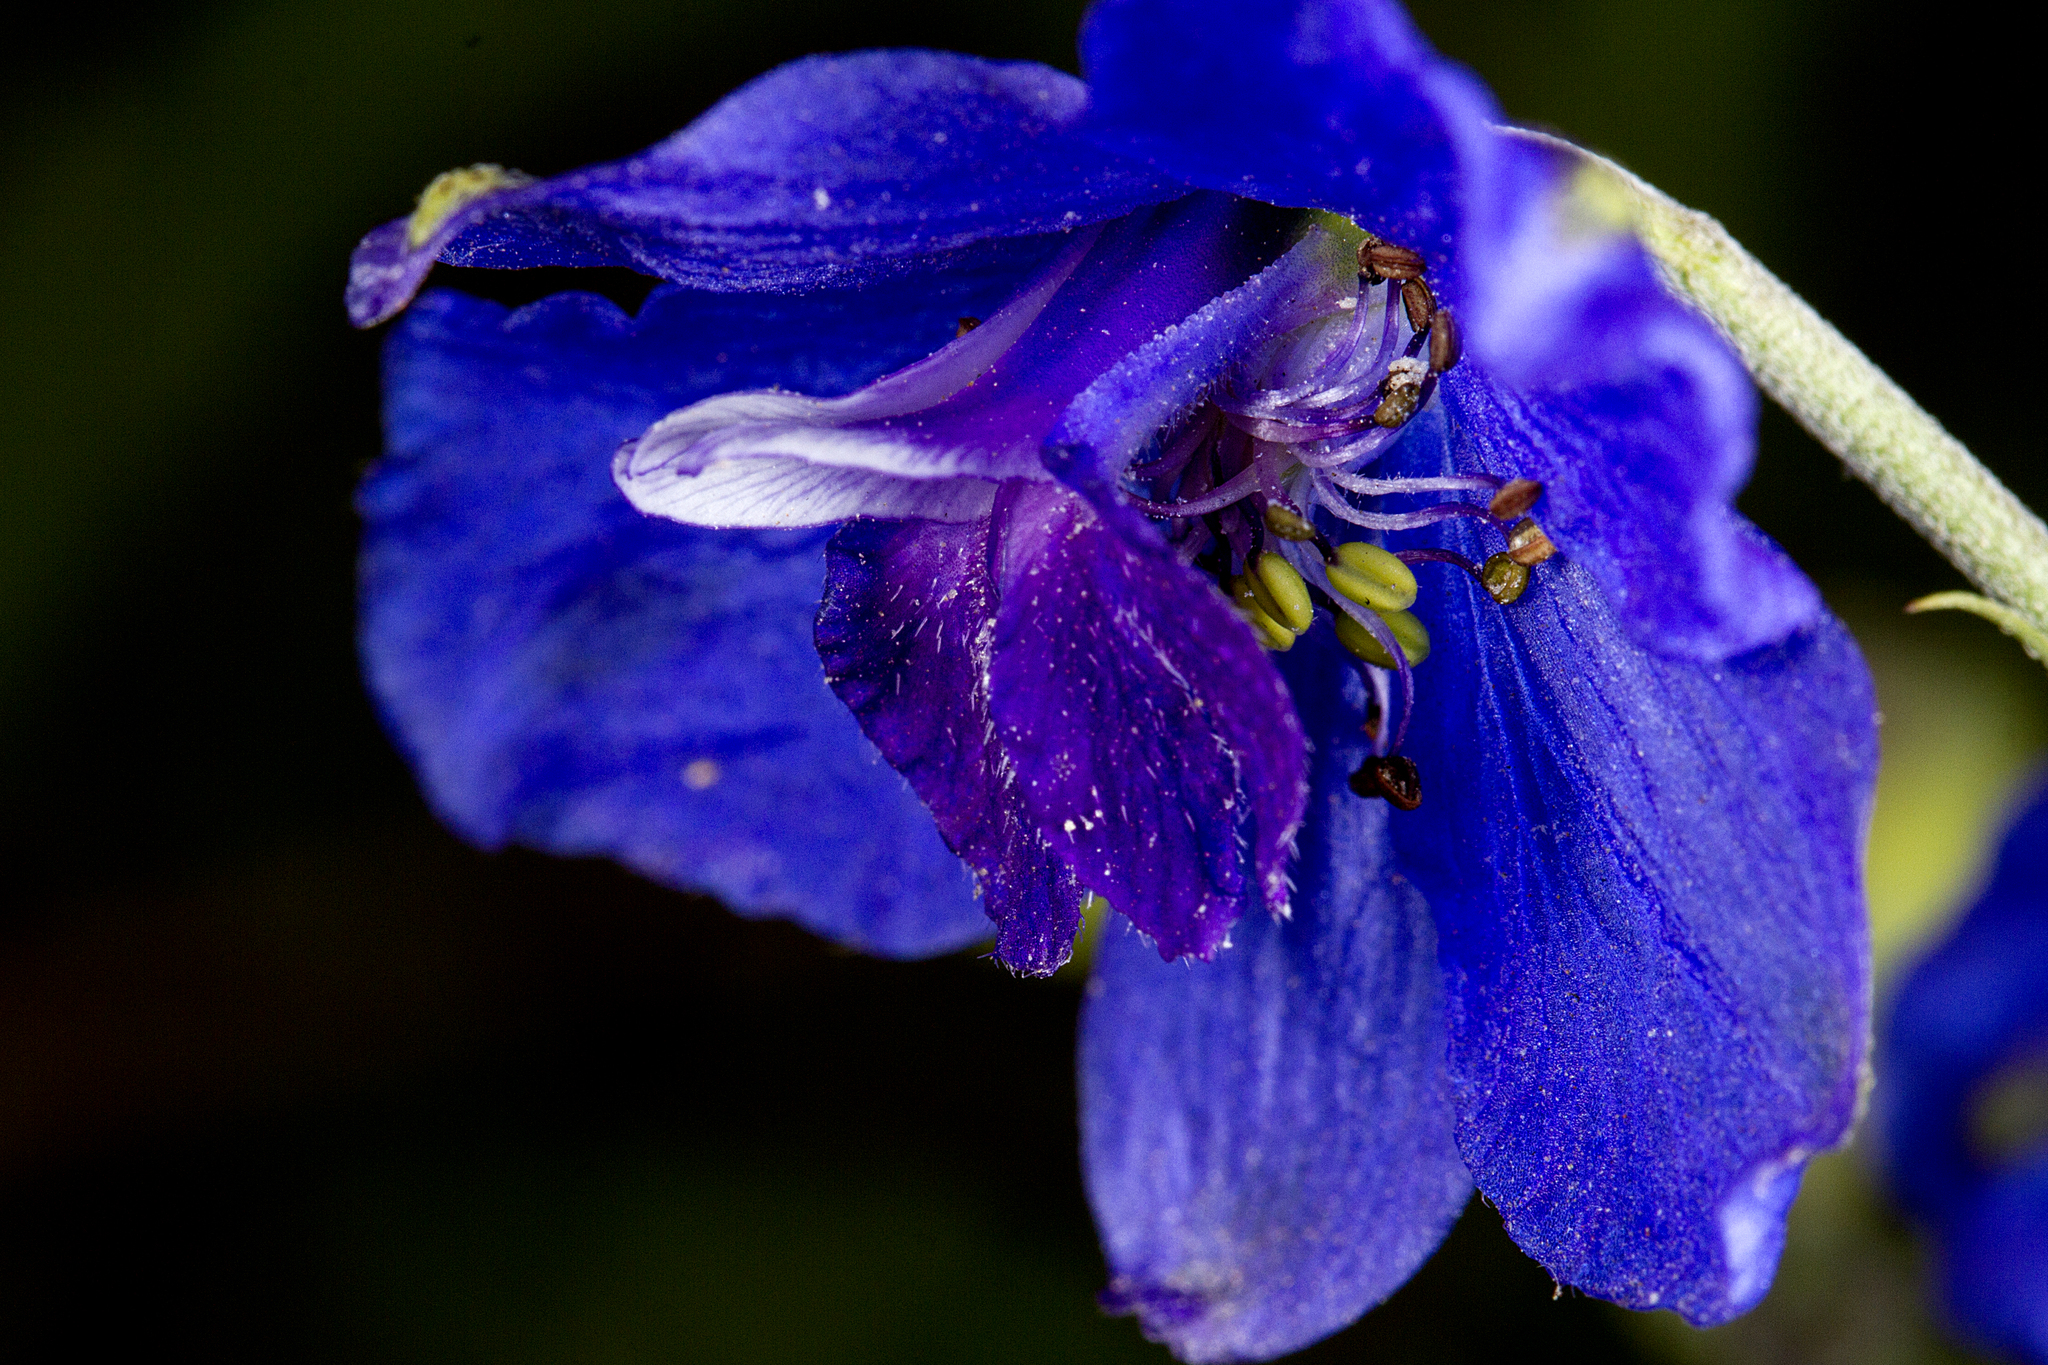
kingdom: Plantae
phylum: Tracheophyta
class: Magnoliopsida
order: Ranunculales
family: Ranunculaceae
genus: Delphinium
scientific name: Delphinium malabaricum
